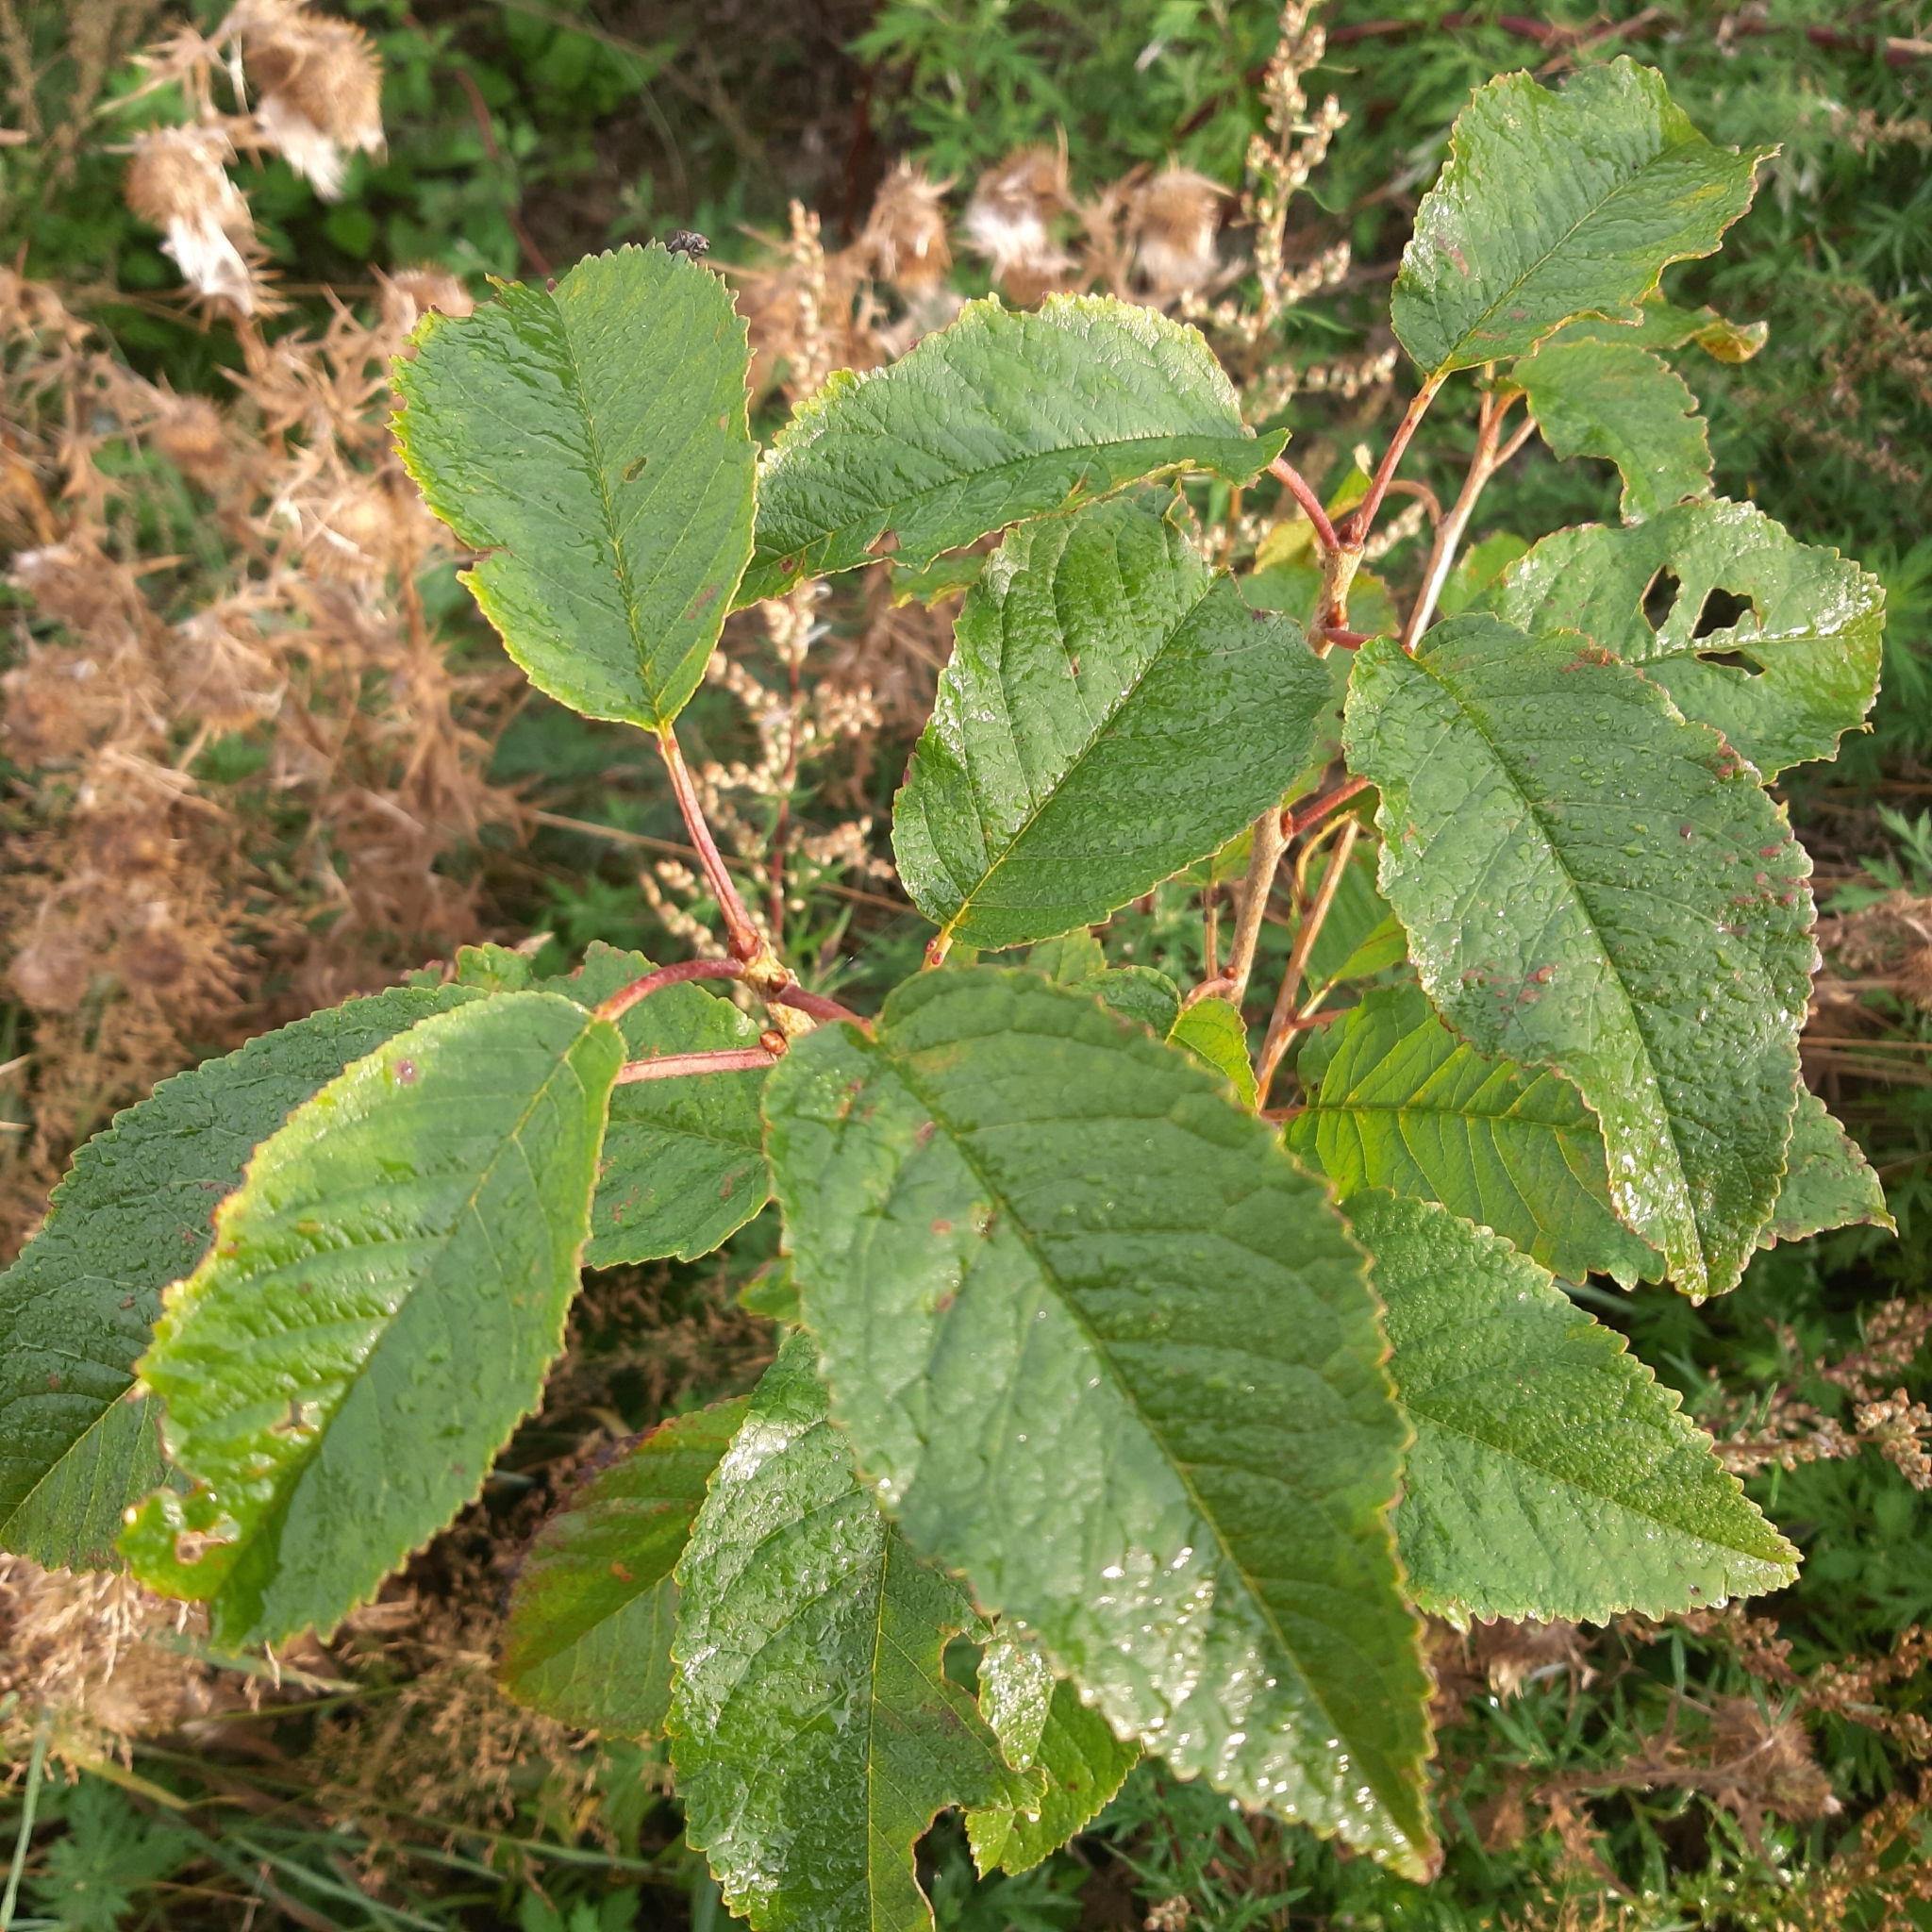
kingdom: Plantae
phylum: Tracheophyta
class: Magnoliopsida
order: Rosales
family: Rosaceae
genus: Prunus
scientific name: Prunus avium
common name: Sweet cherry
